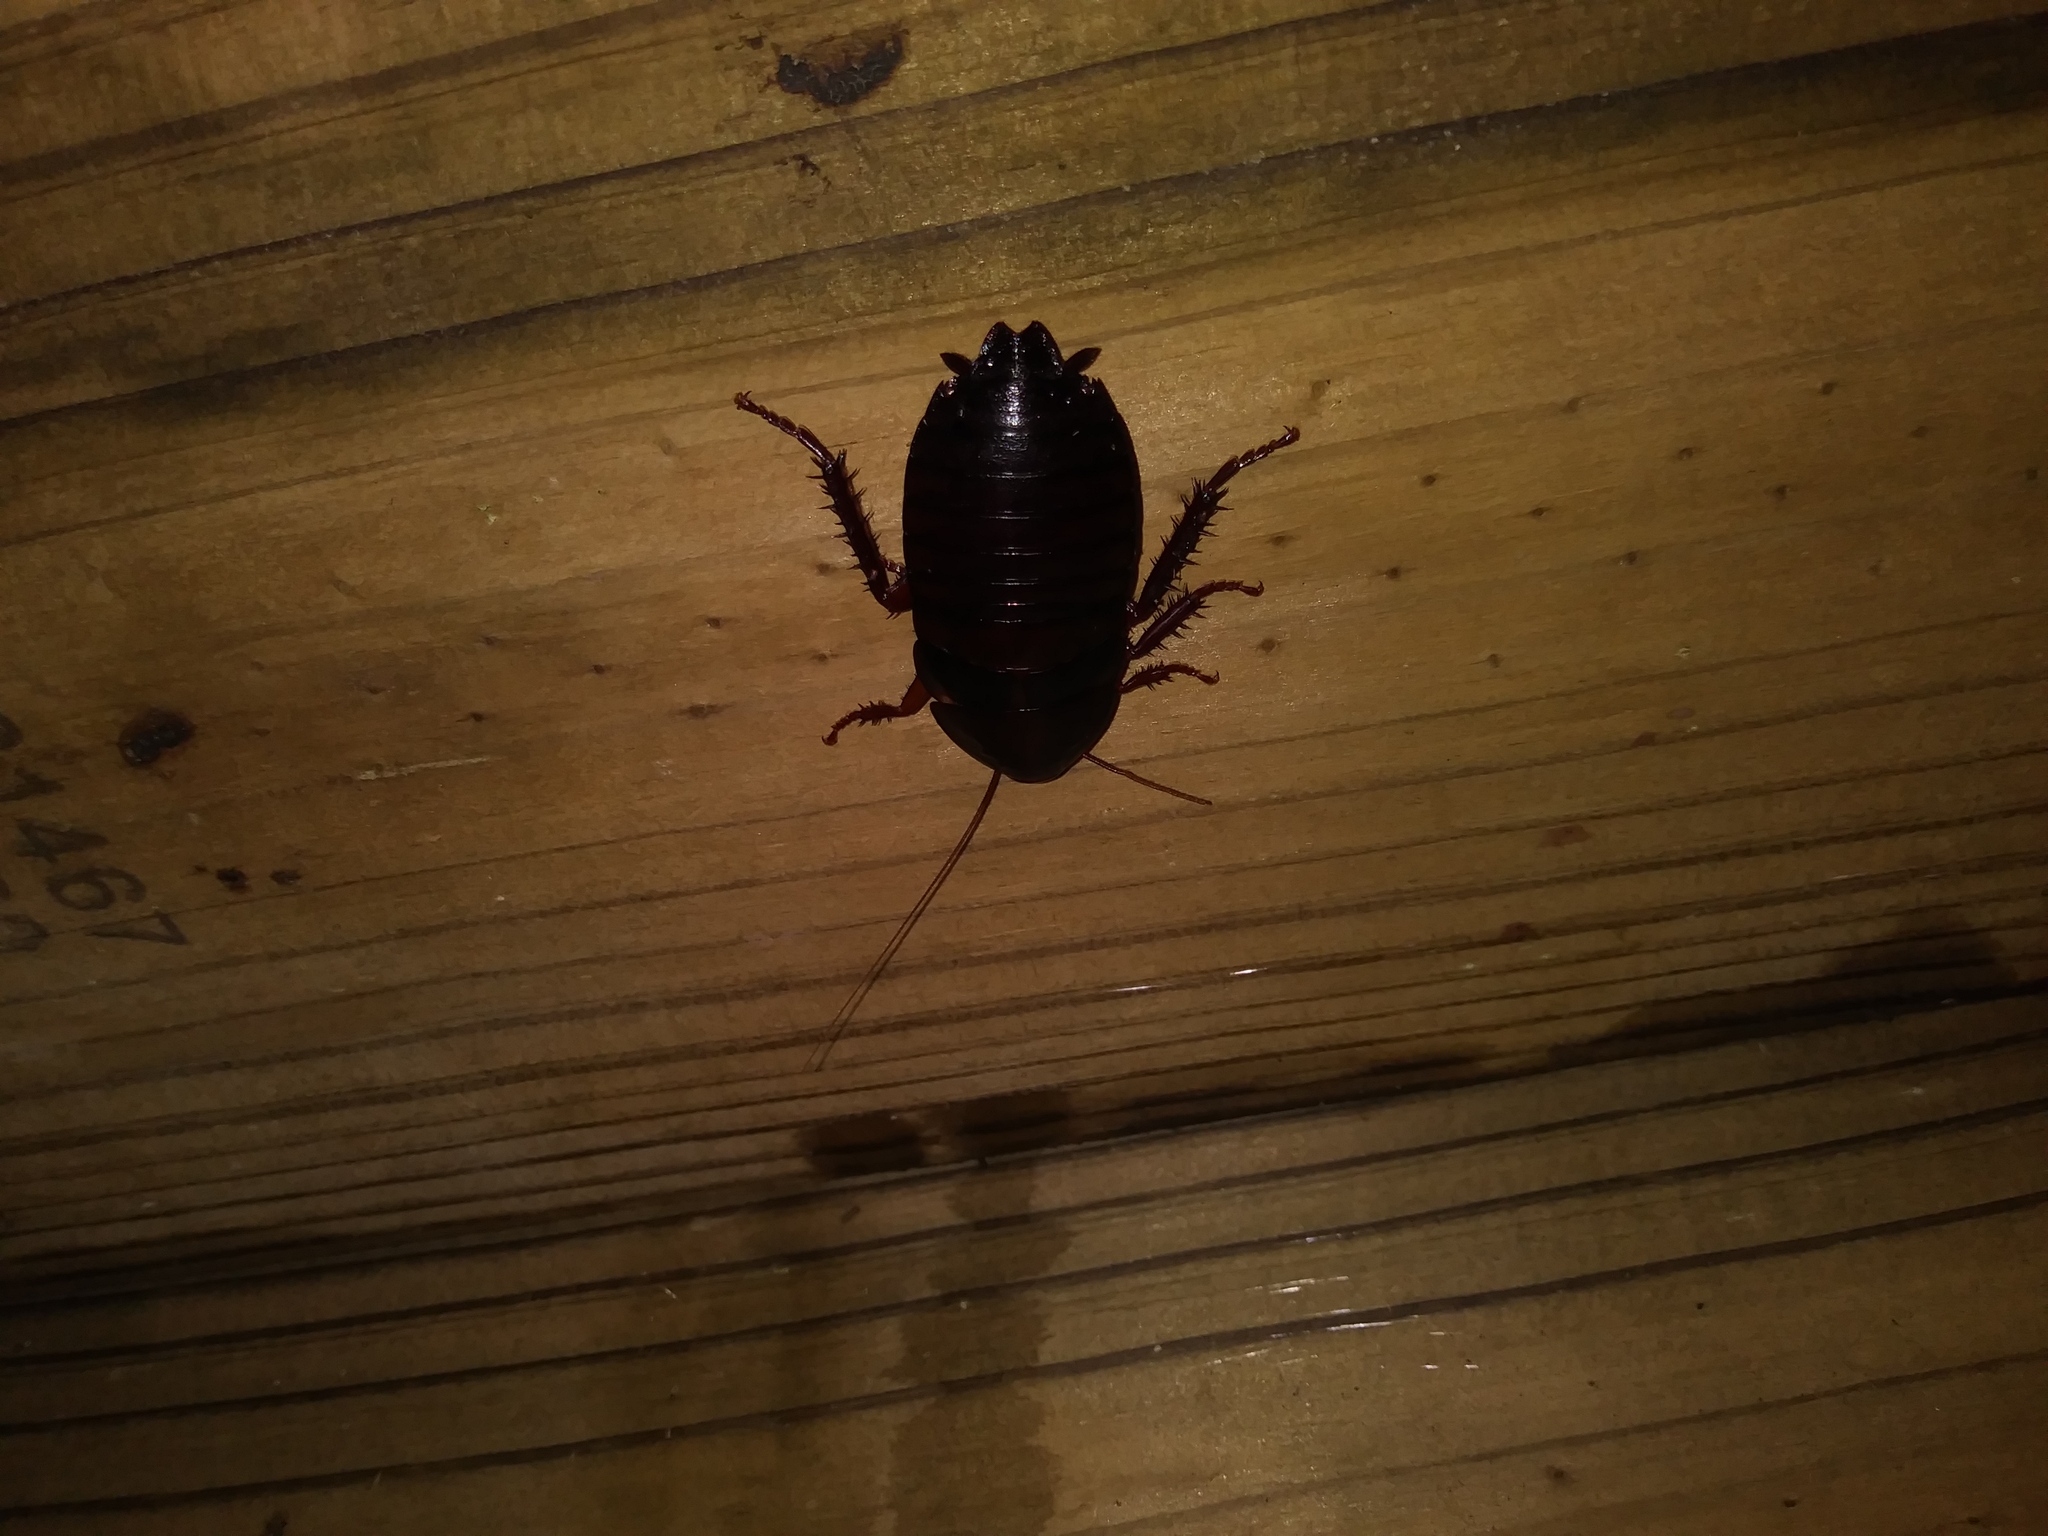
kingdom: Animalia
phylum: Arthropoda
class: Insecta
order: Blattodea
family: Blattidae
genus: Eurycotis
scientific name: Eurycotis floridana
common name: Florida cockroach
